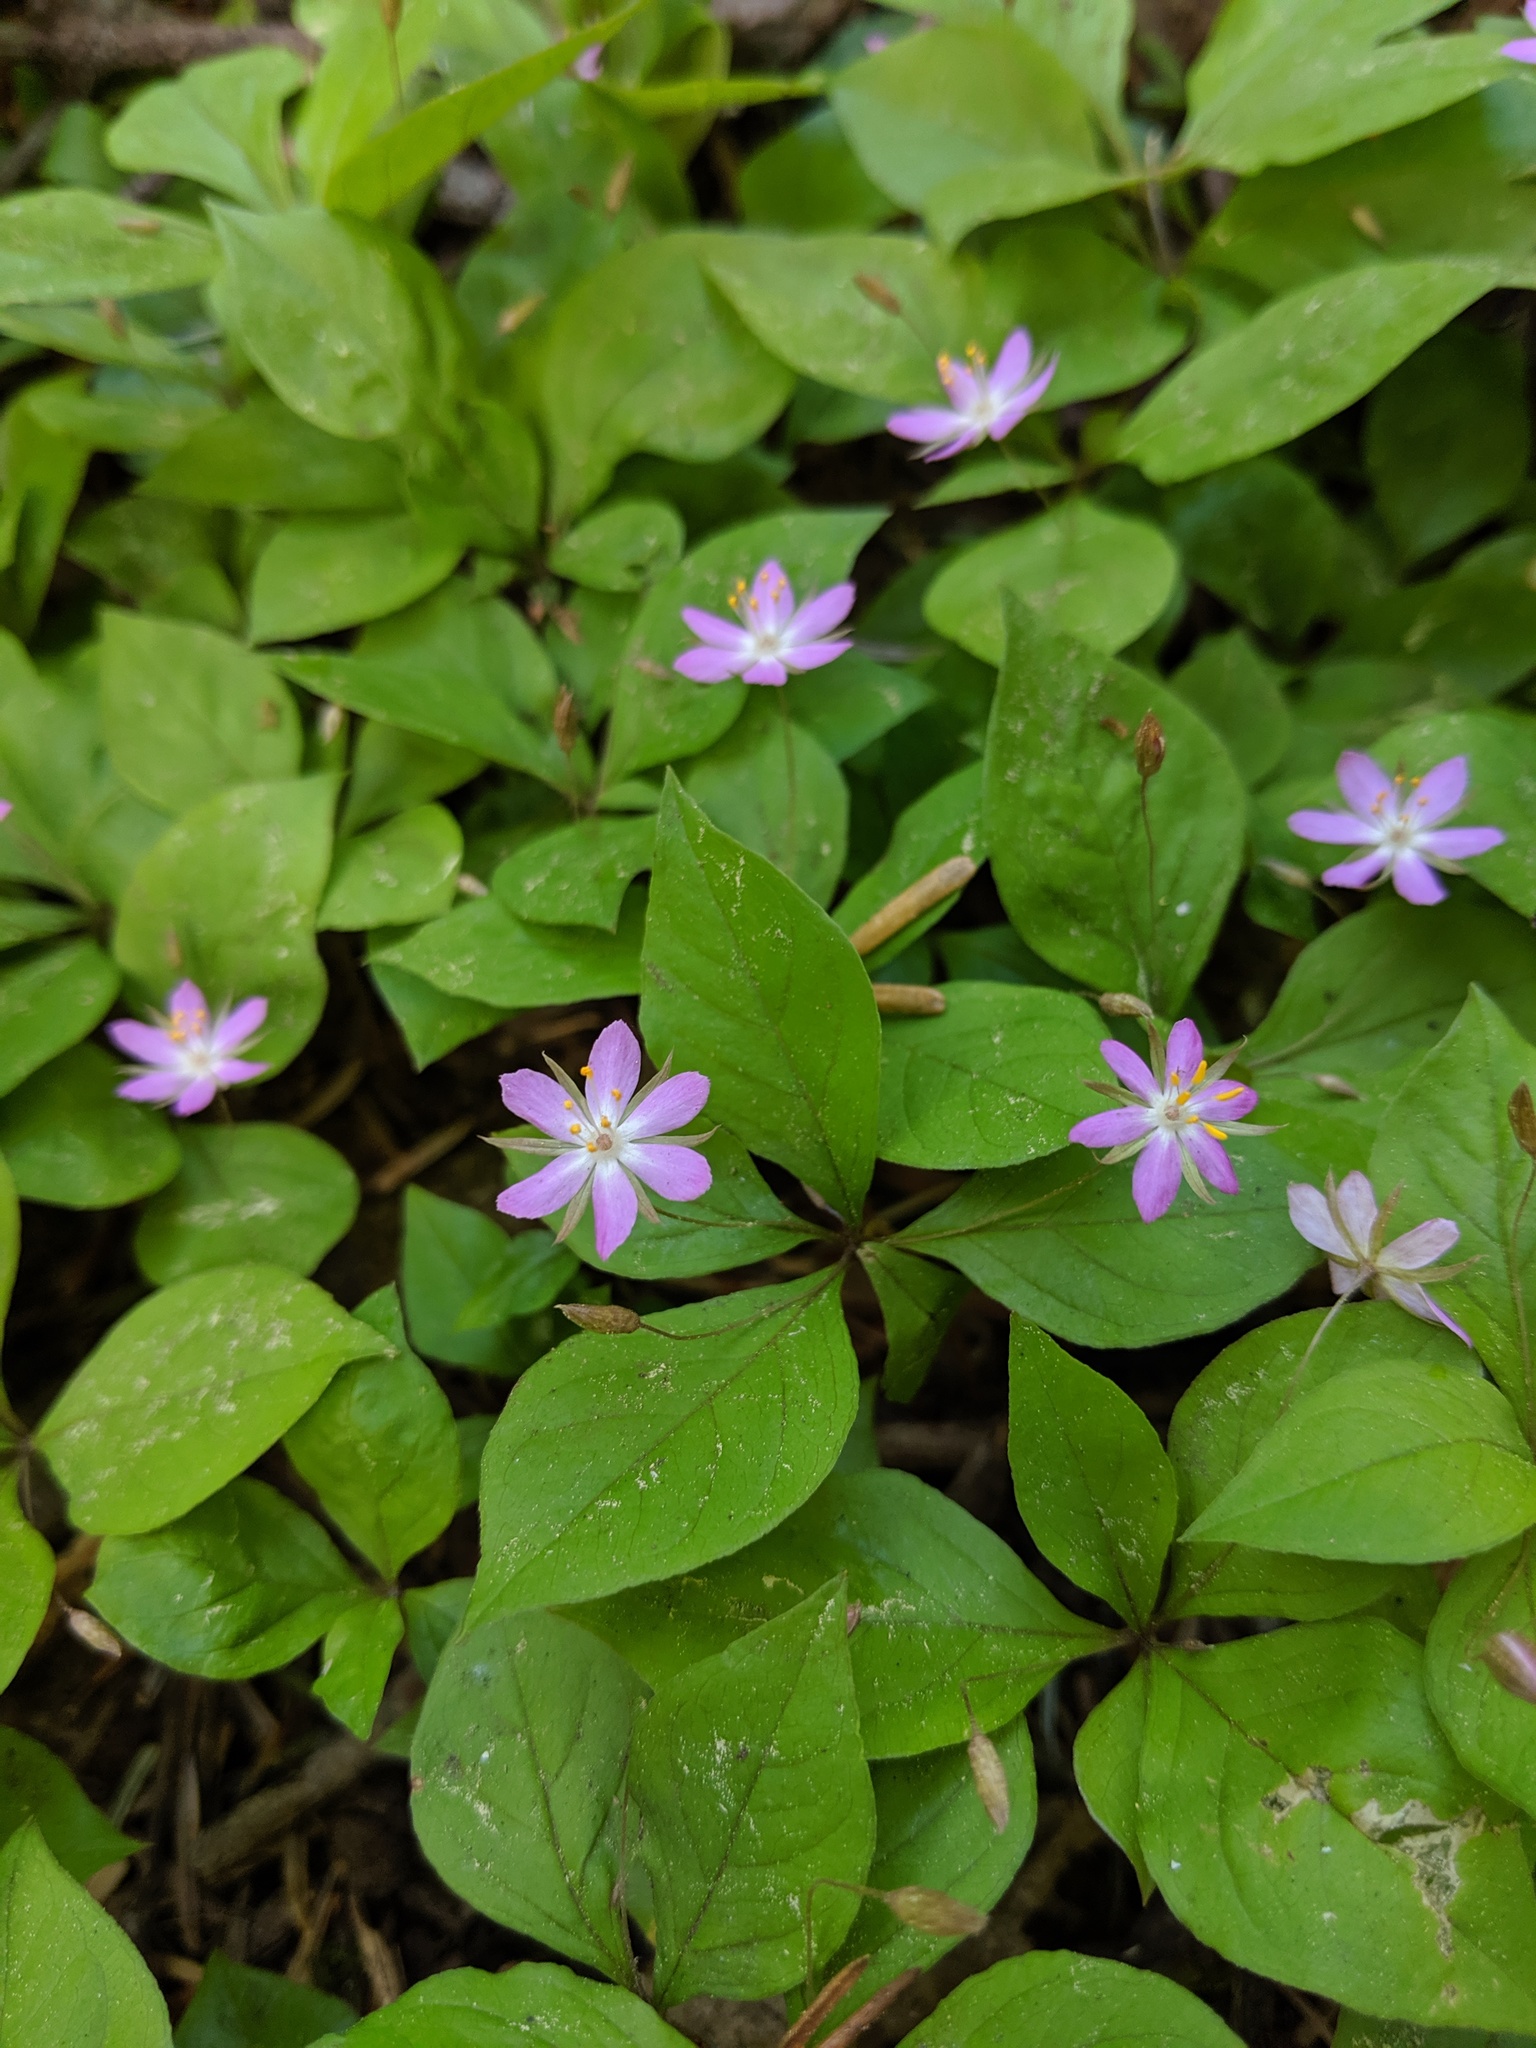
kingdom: Plantae
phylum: Tracheophyta
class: Magnoliopsida
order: Ericales
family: Primulaceae
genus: Lysimachia
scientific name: Lysimachia latifolia
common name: Pacific starflower
